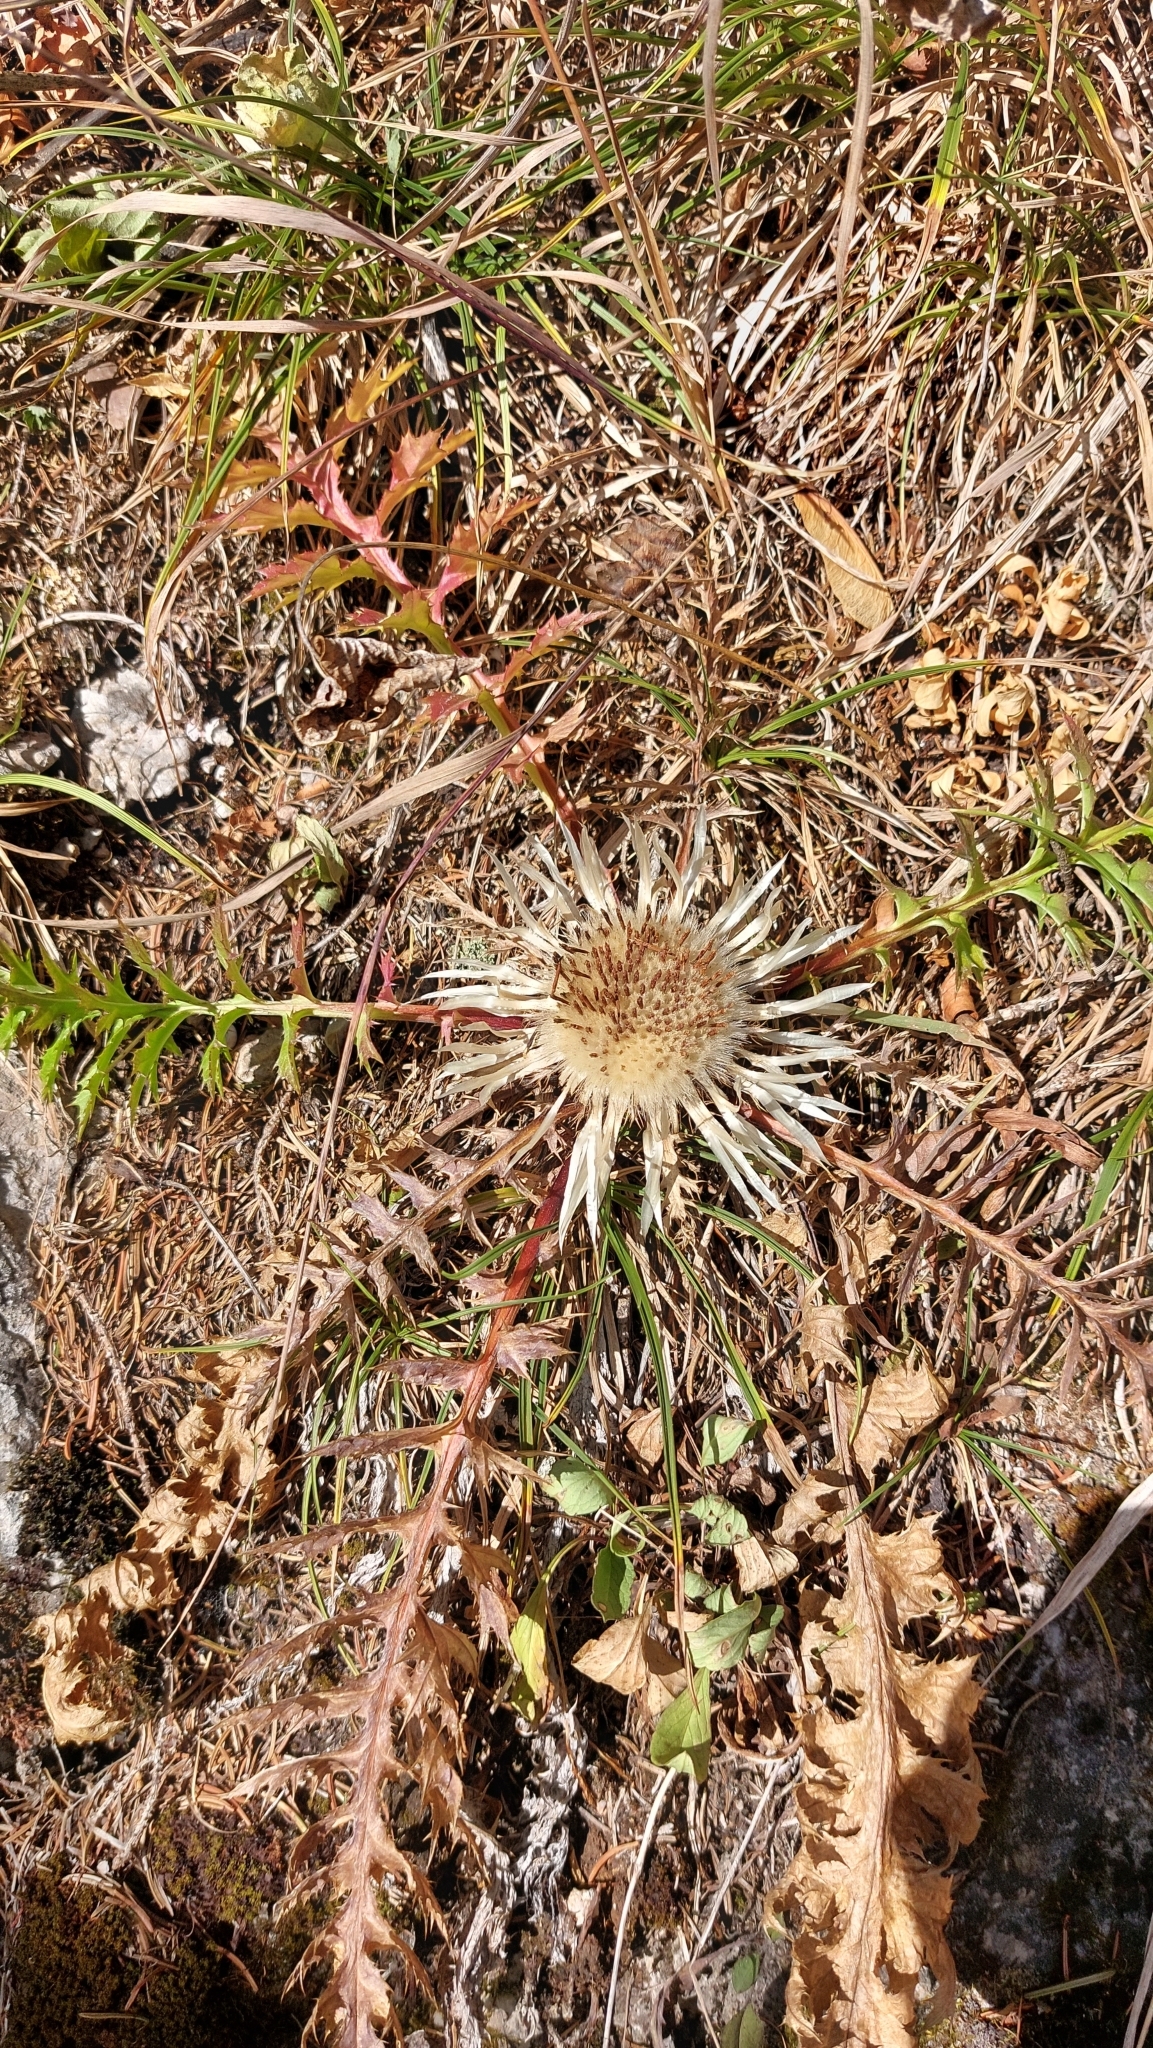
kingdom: Plantae
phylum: Tracheophyta
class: Magnoliopsida
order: Asterales
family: Asteraceae
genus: Carlina
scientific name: Carlina acaulis
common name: Stemless carline thistle
